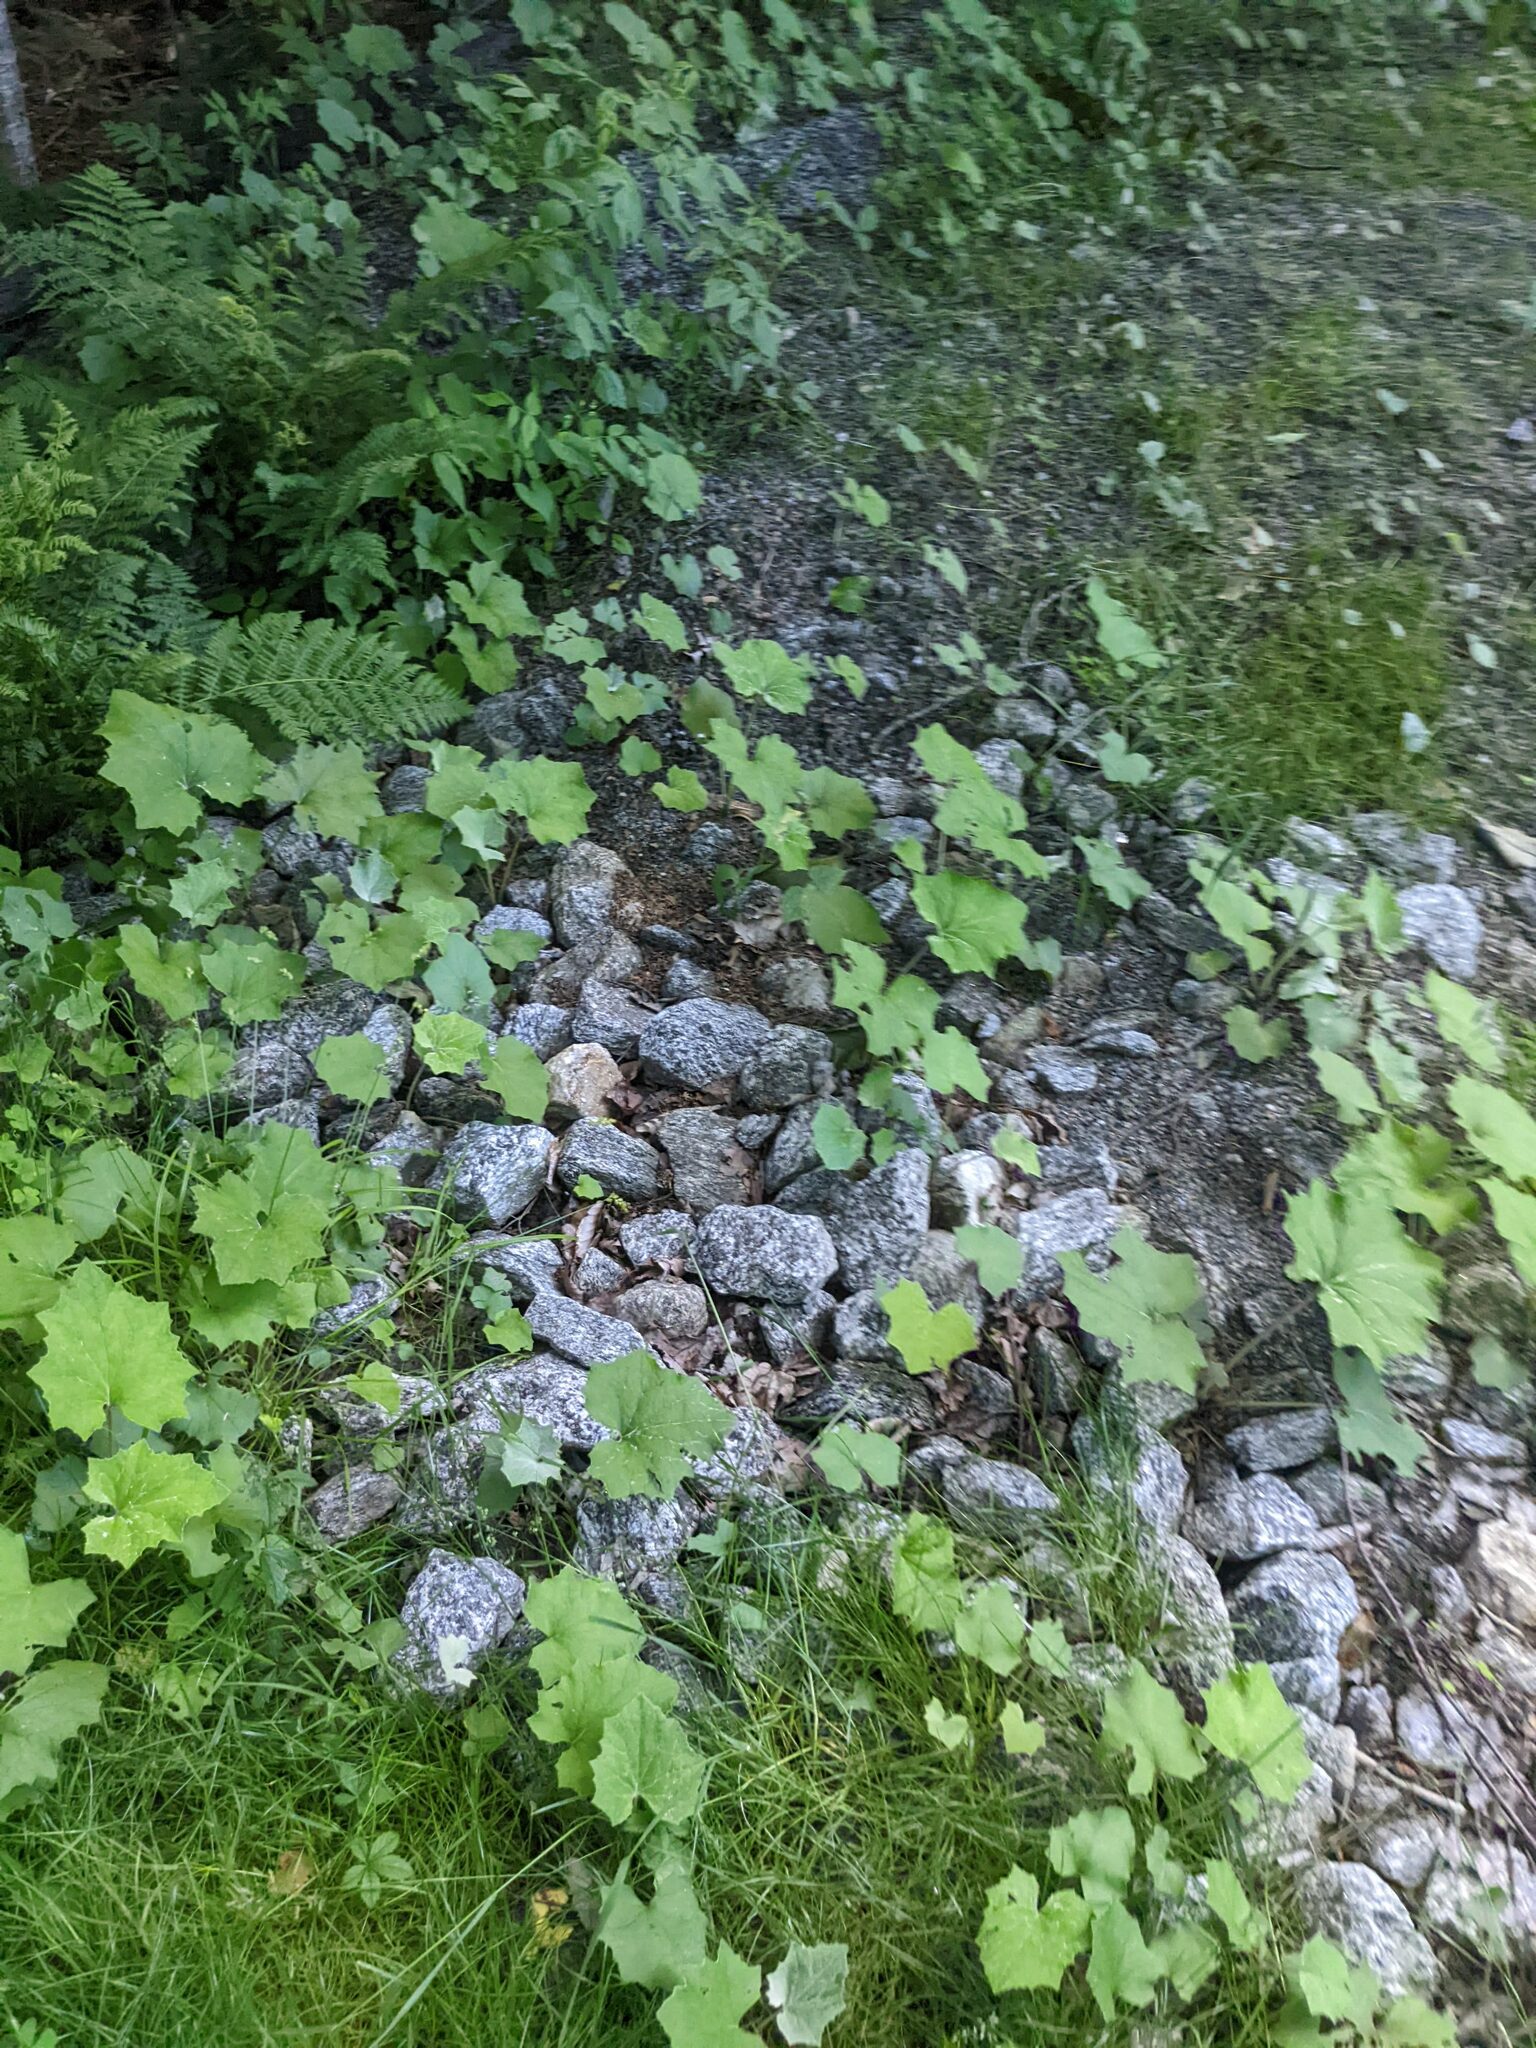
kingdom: Plantae
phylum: Tracheophyta
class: Magnoliopsida
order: Asterales
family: Asteraceae
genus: Tussilago
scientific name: Tussilago farfara
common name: Coltsfoot
